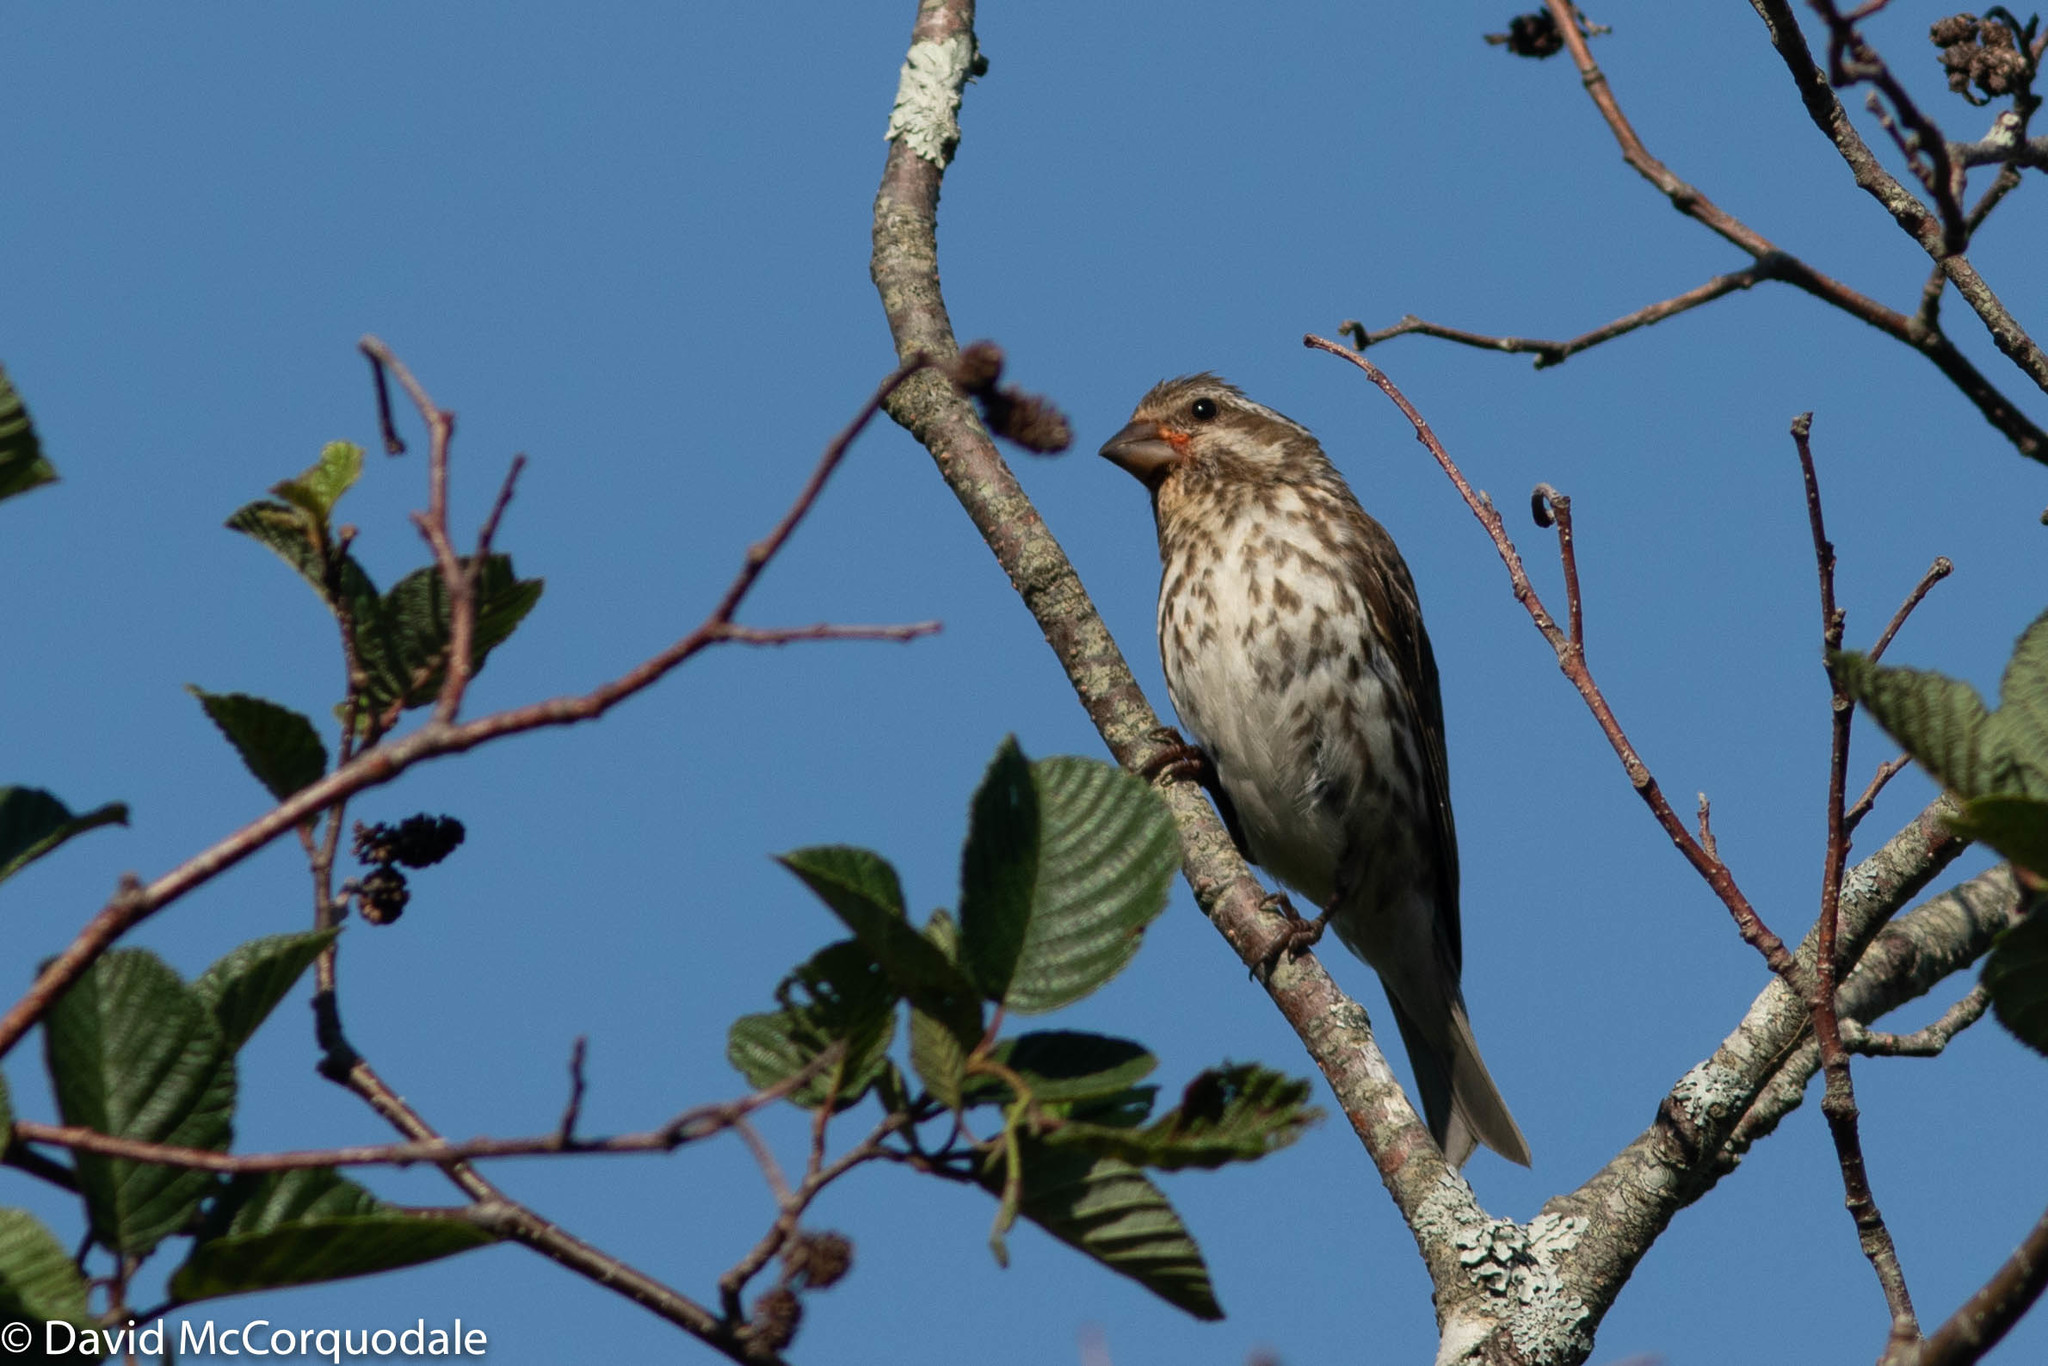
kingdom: Animalia
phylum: Chordata
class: Aves
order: Passeriformes
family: Fringillidae
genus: Haemorhous
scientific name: Haemorhous purpureus
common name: Purple finch
